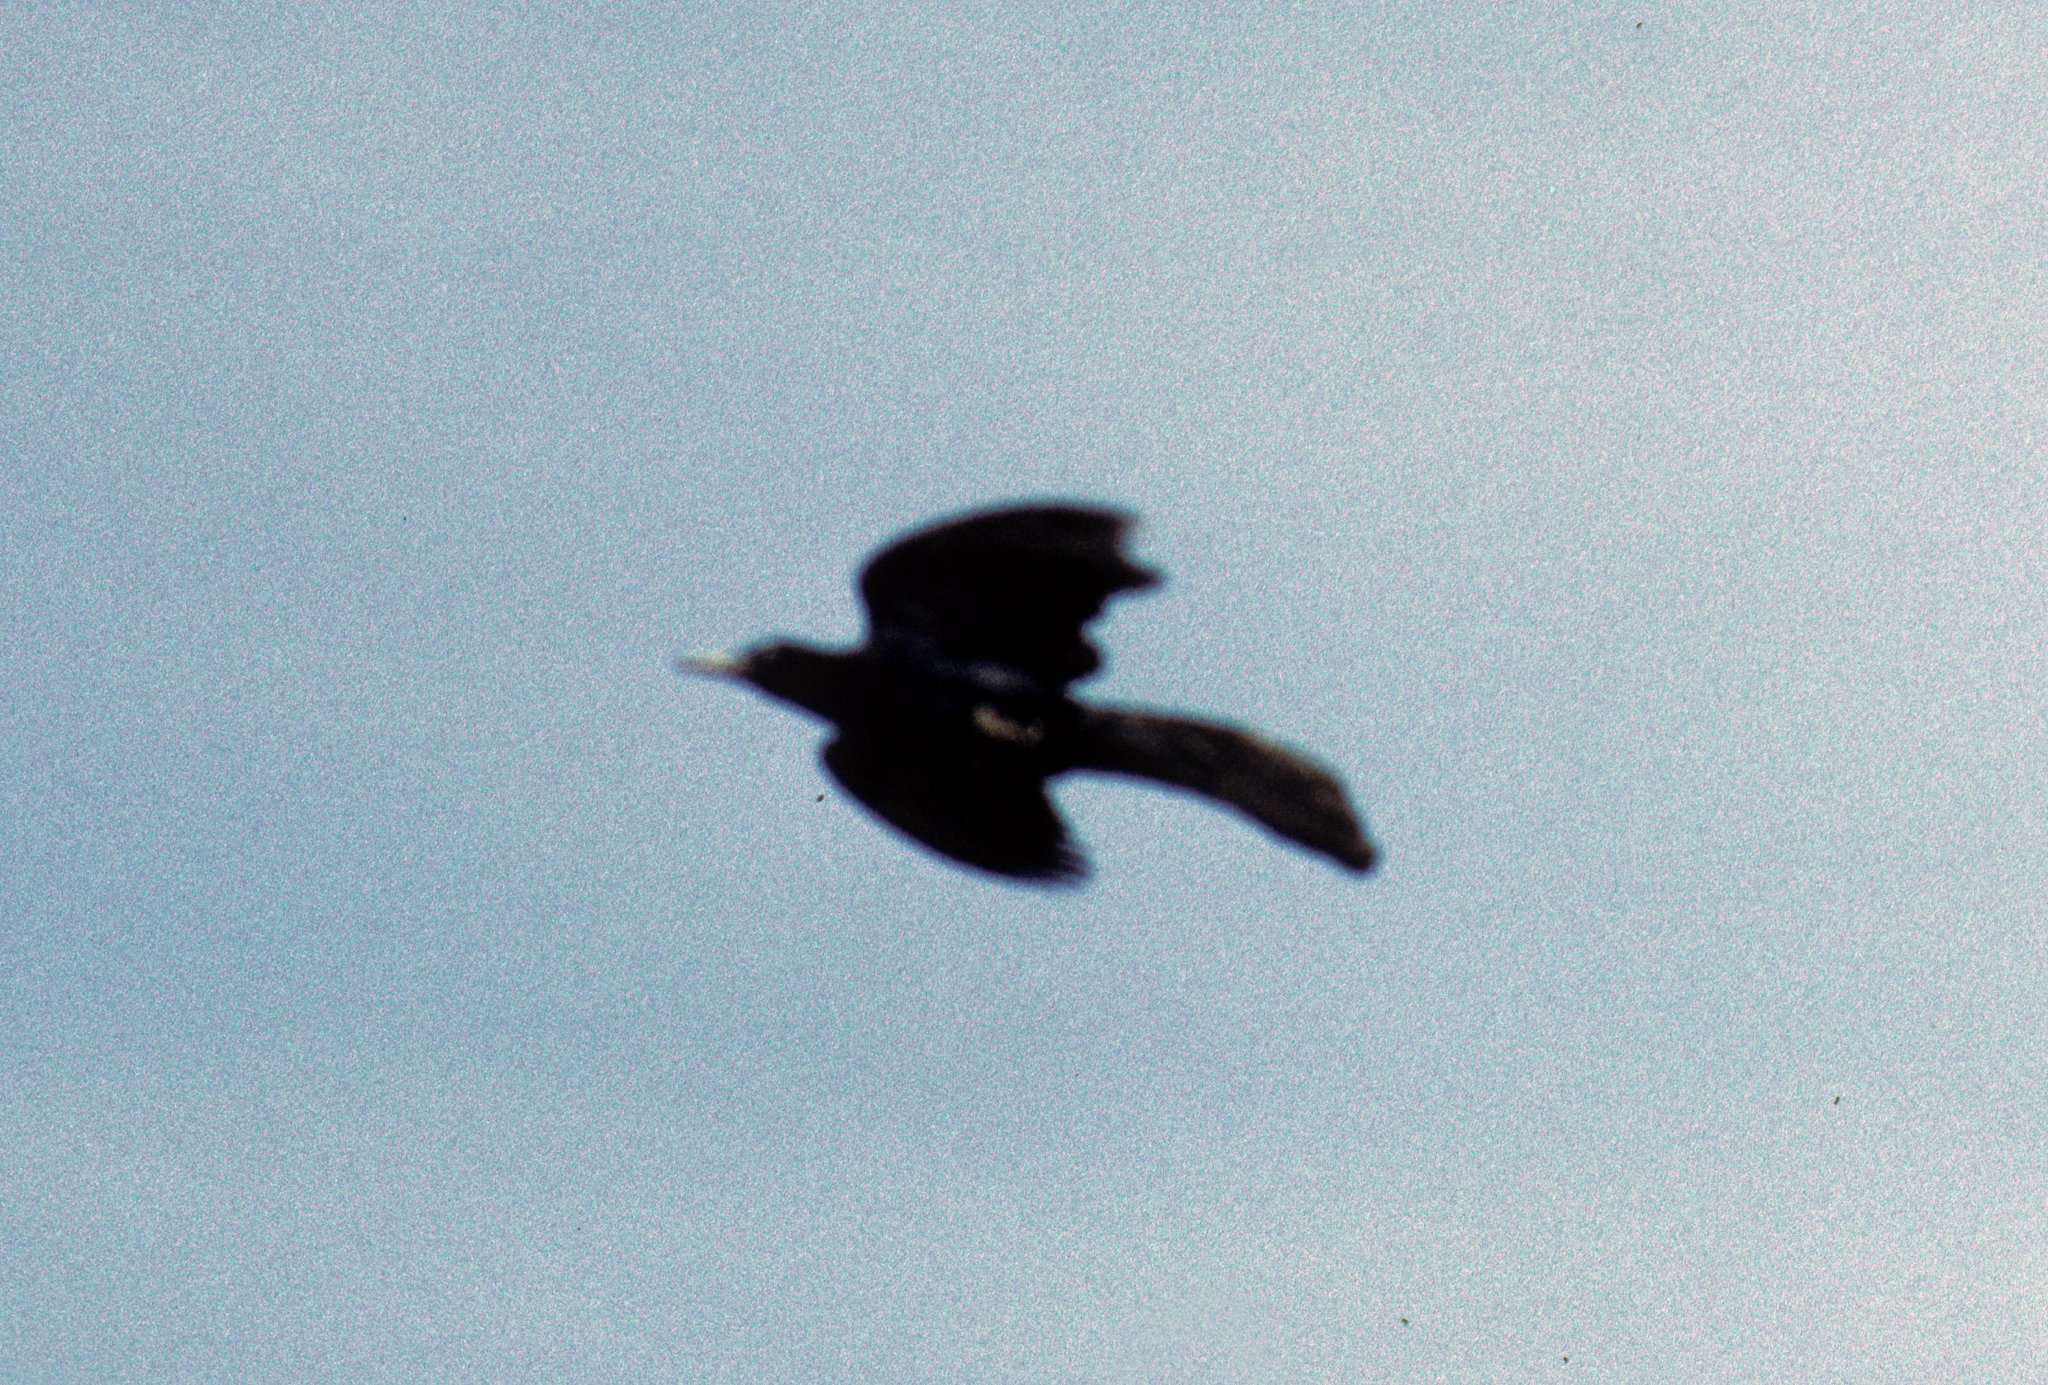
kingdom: Animalia
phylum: Chordata
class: Aves
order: Passeriformes
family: Icteridae
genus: Quiscalus
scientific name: Quiscalus mexicanus
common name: Great-tailed grackle
